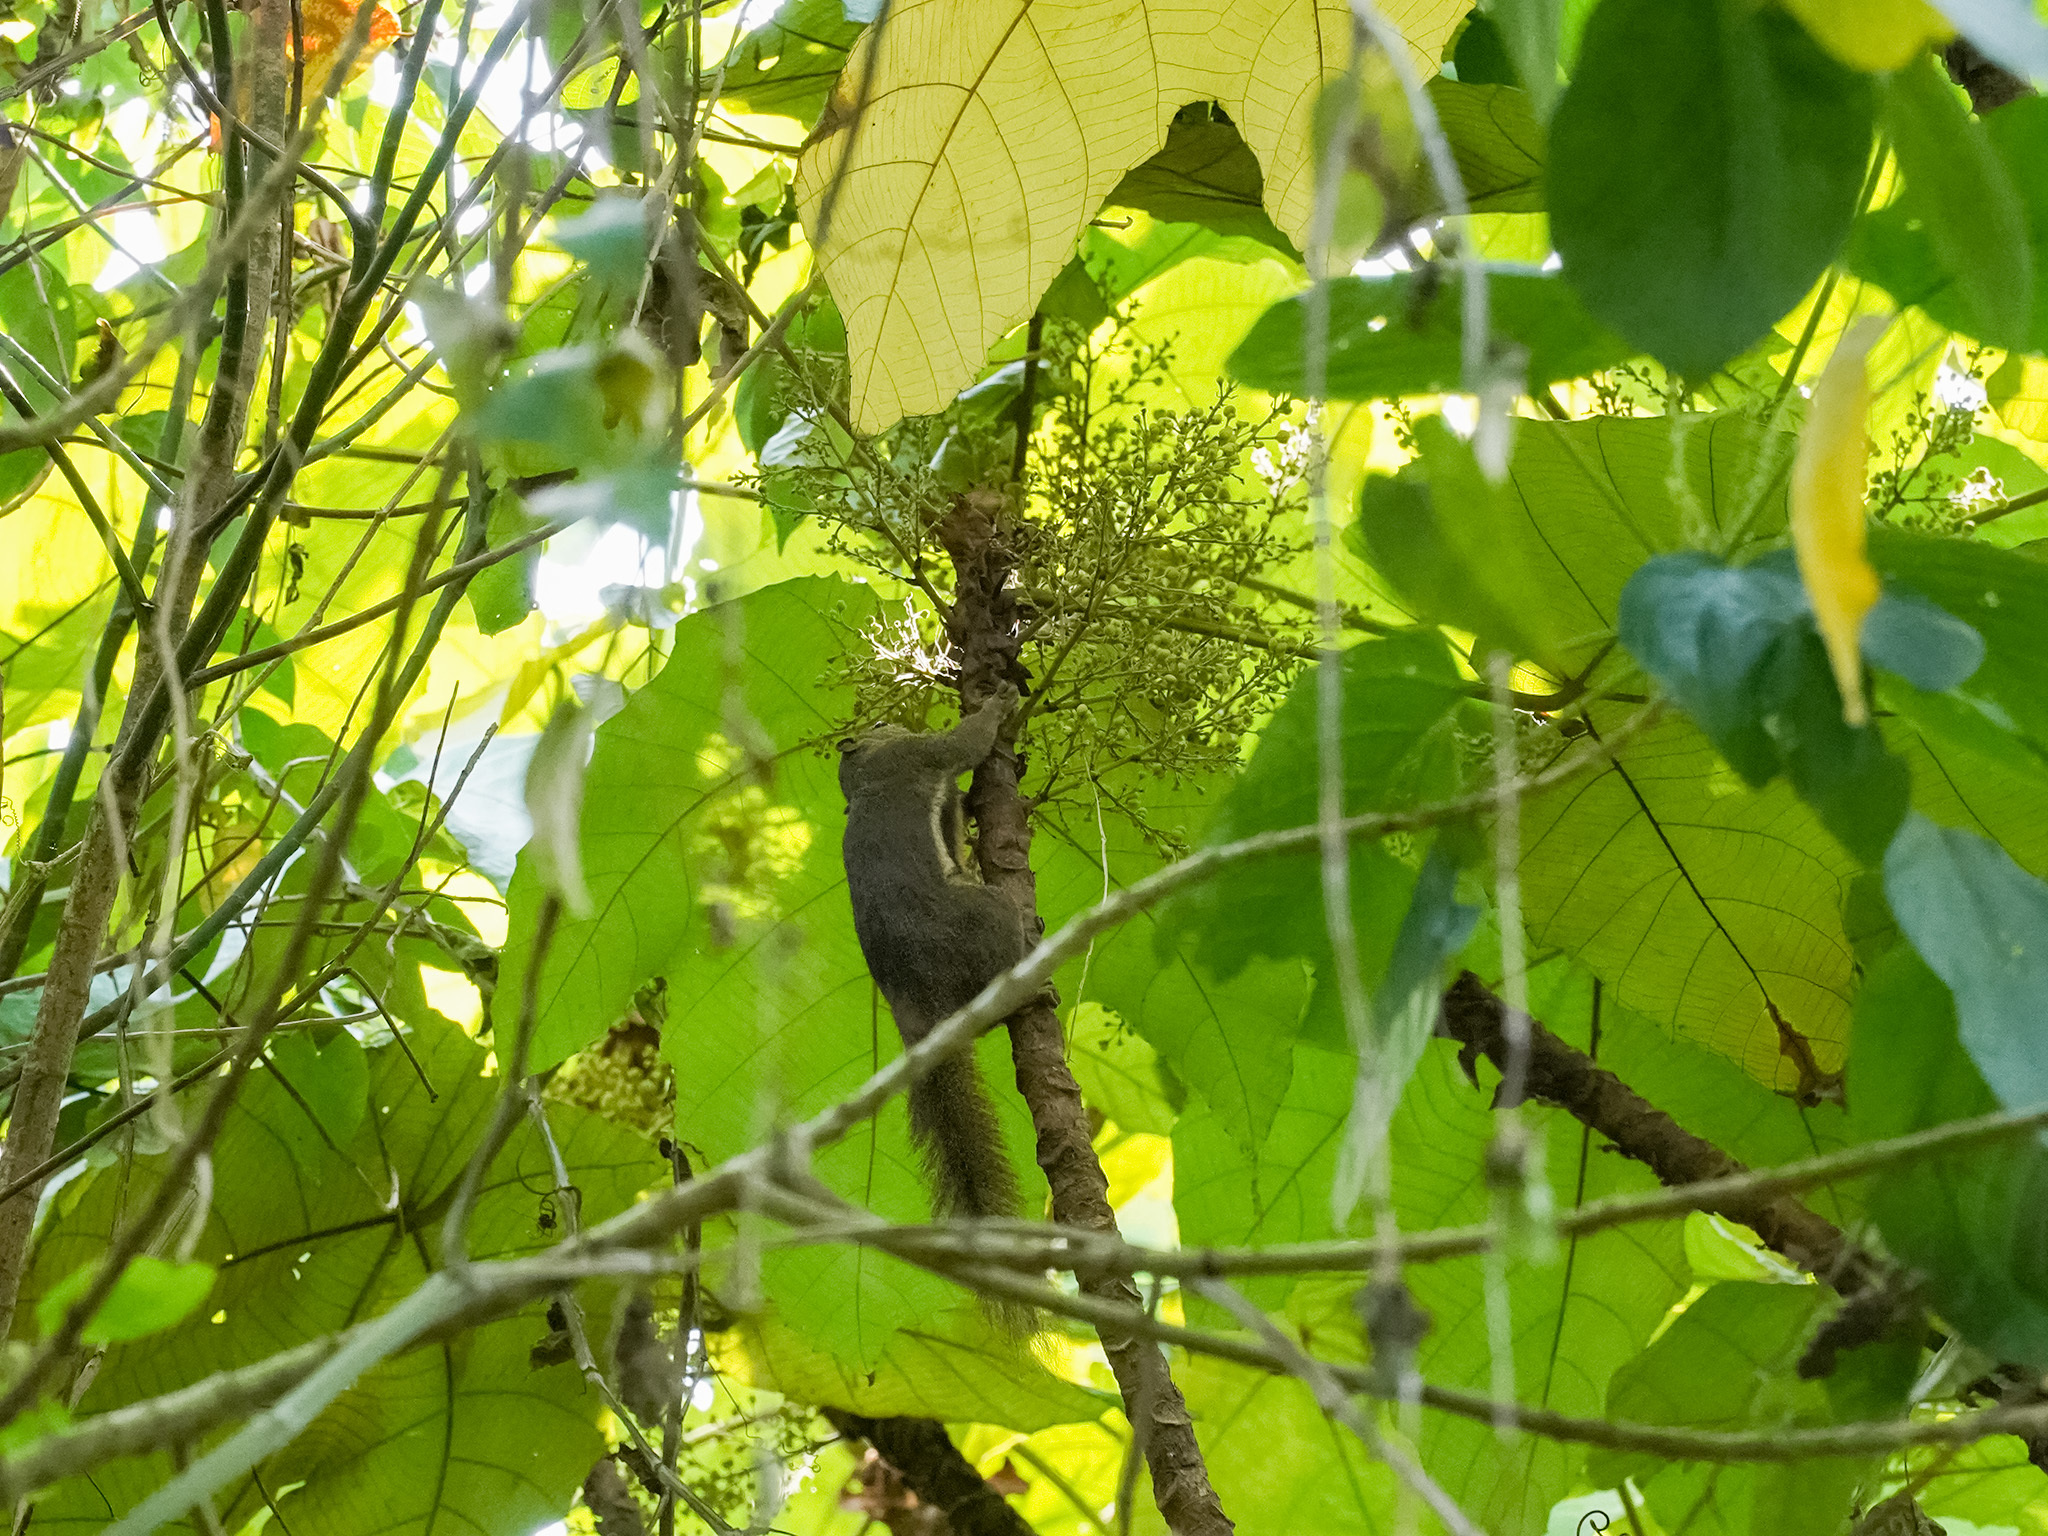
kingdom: Animalia
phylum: Chordata
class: Mammalia
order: Rodentia
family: Sciuridae
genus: Callosciurus
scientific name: Callosciurus notatus
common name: Plantain squirrel
